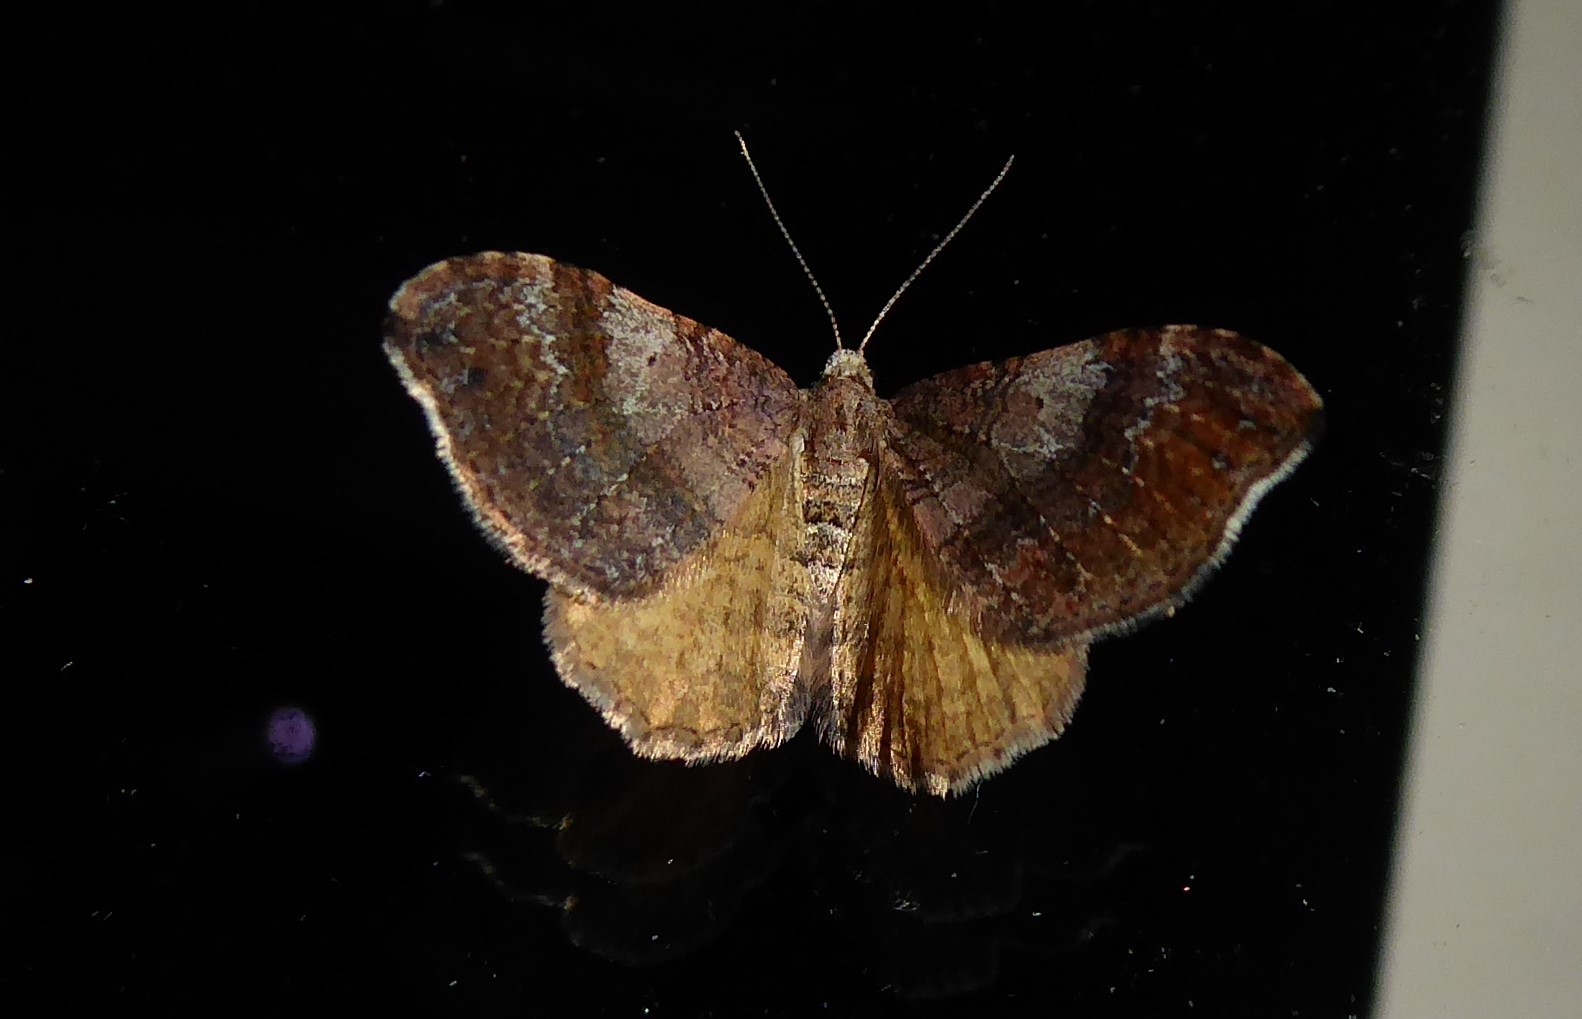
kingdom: Animalia
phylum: Arthropoda
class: Insecta
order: Lepidoptera
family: Geometridae
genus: Homodotis
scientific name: Homodotis megaspilata
